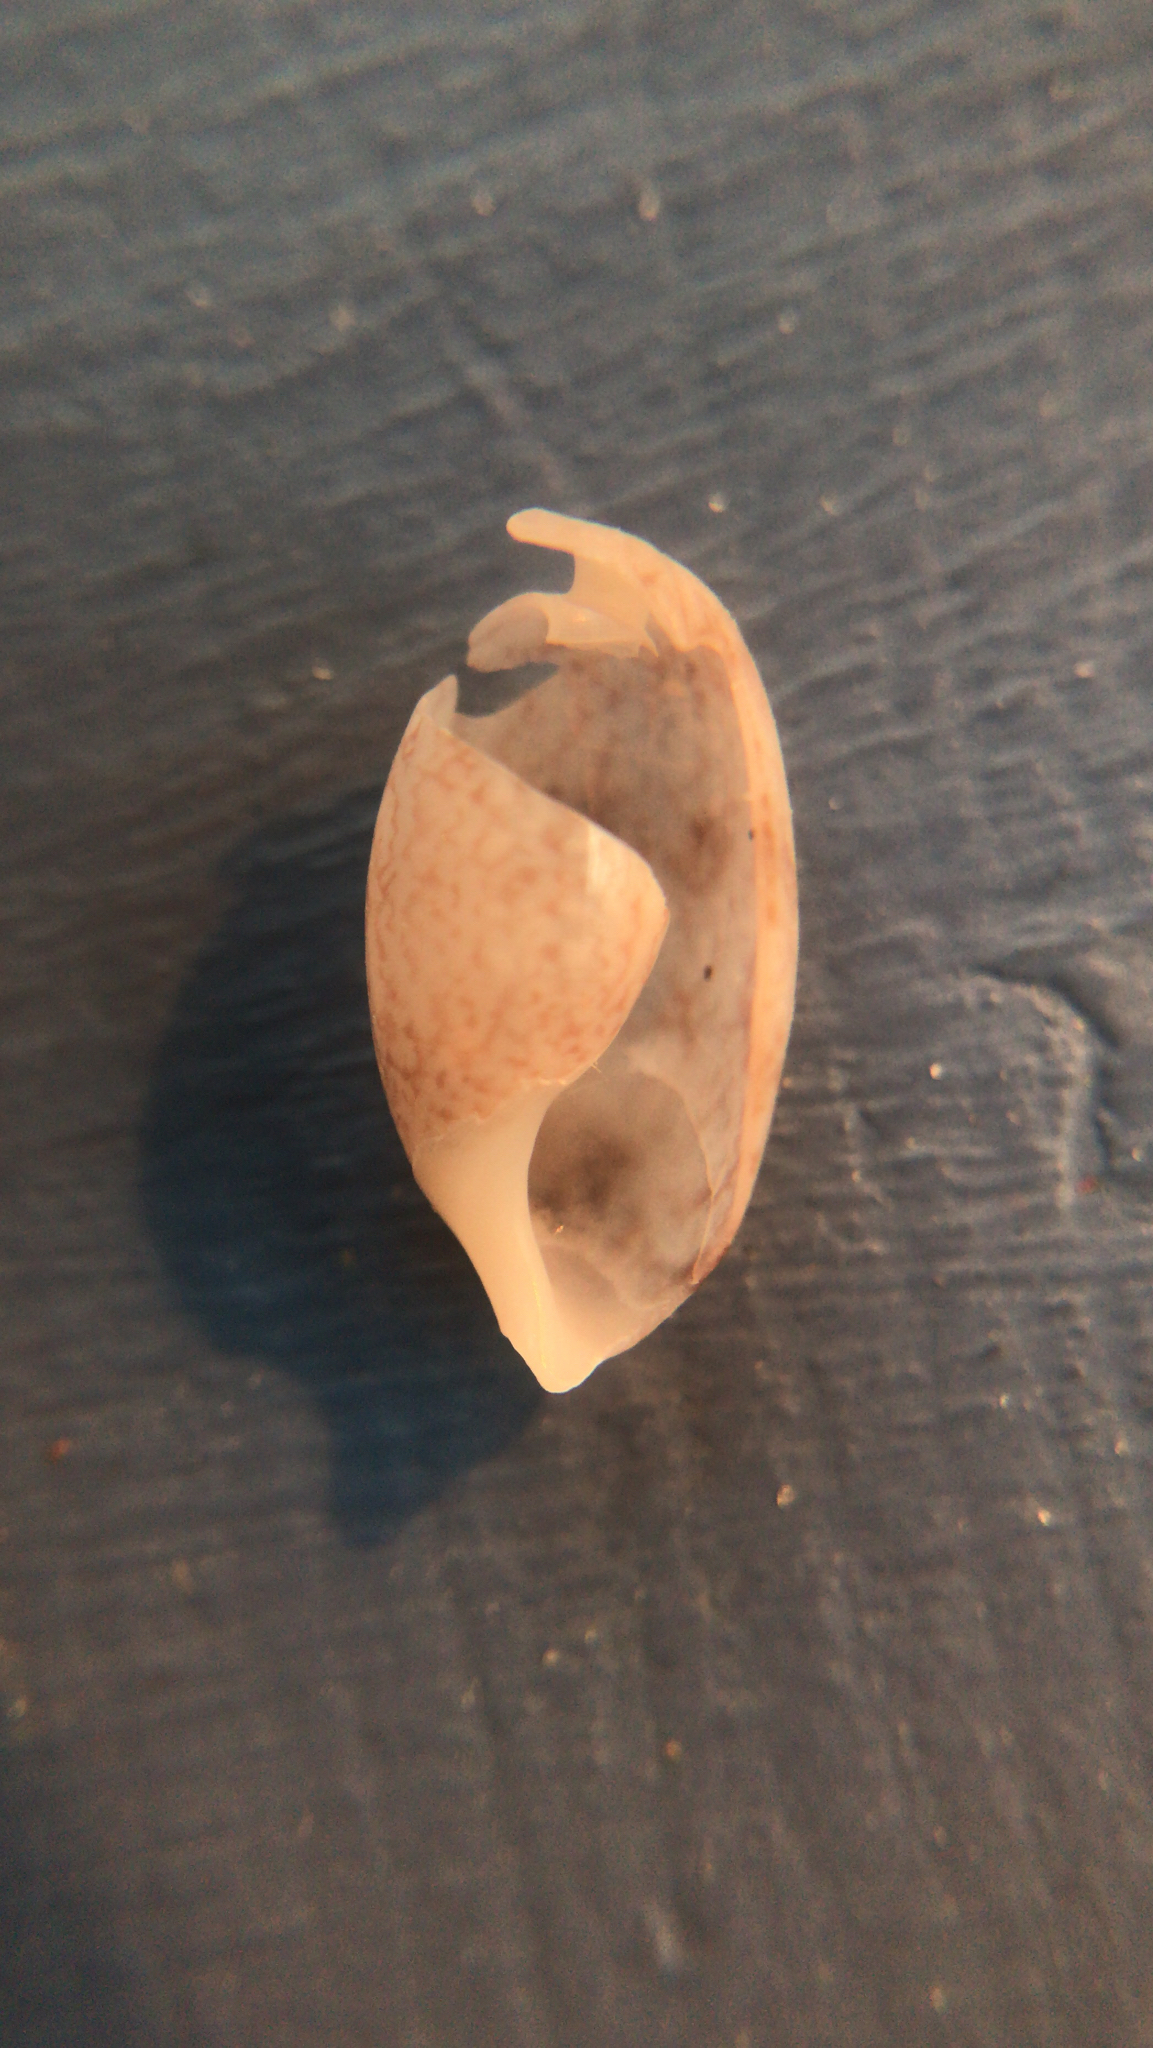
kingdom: Animalia
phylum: Mollusca
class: Gastropoda
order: Cephalaspidea
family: Bullidae
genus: Bulla
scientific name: Bulla occidentalis
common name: Common west-indian bubble
